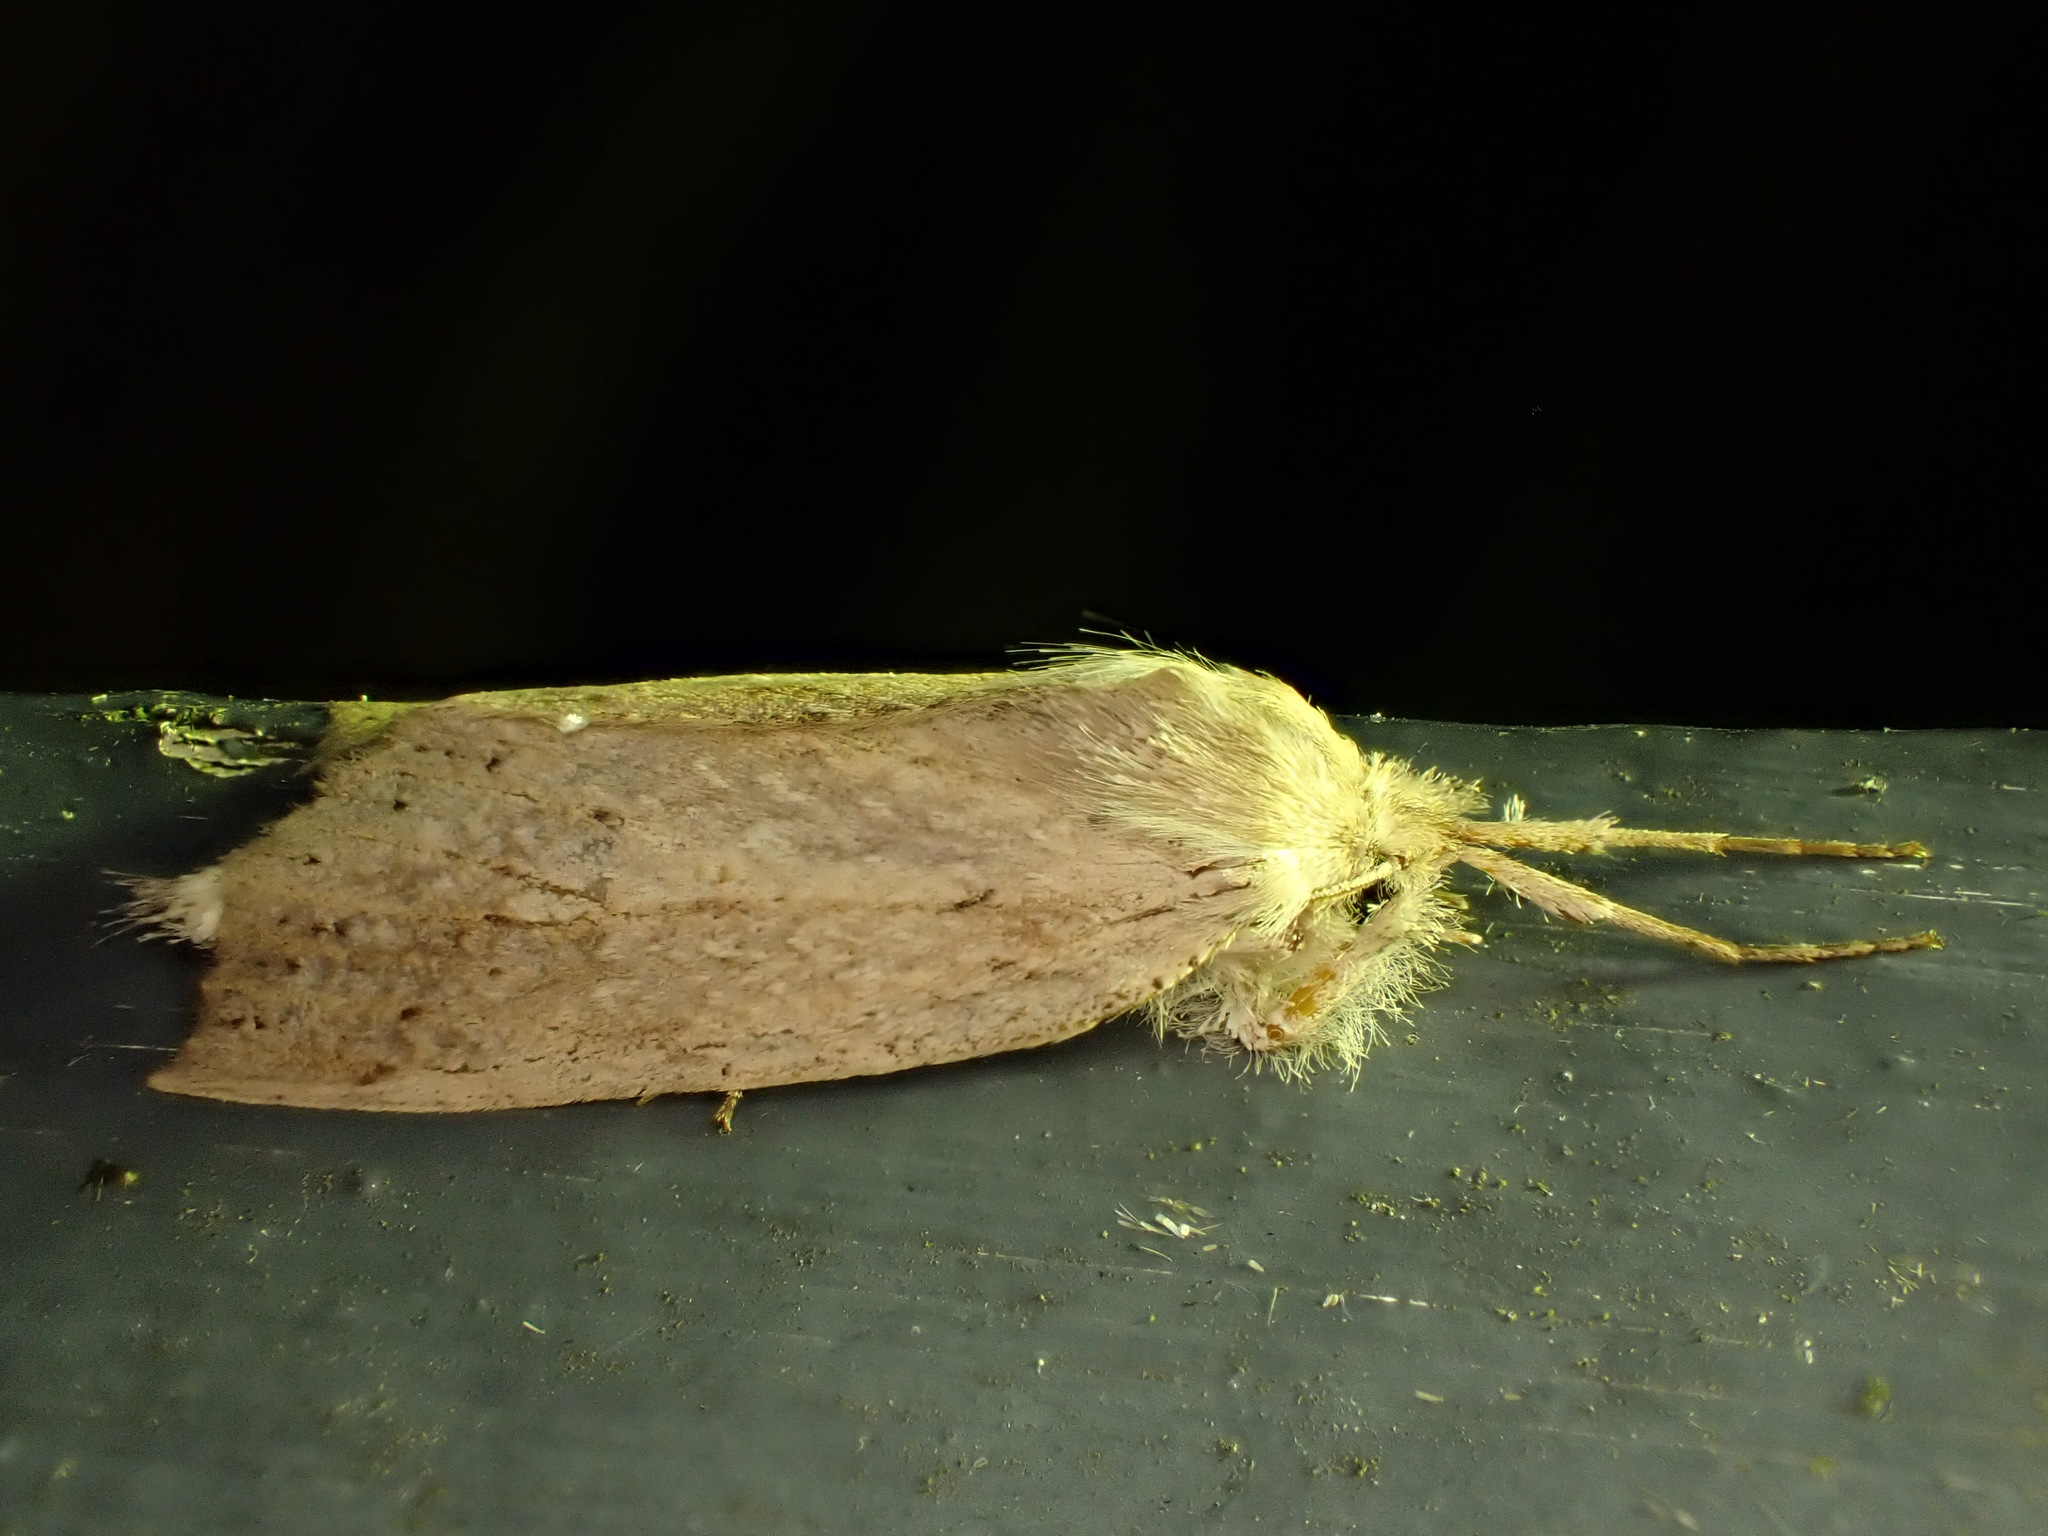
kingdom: Animalia
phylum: Arthropoda
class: Insecta
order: Lepidoptera
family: Geometridae
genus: Declana
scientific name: Declana leptomera
